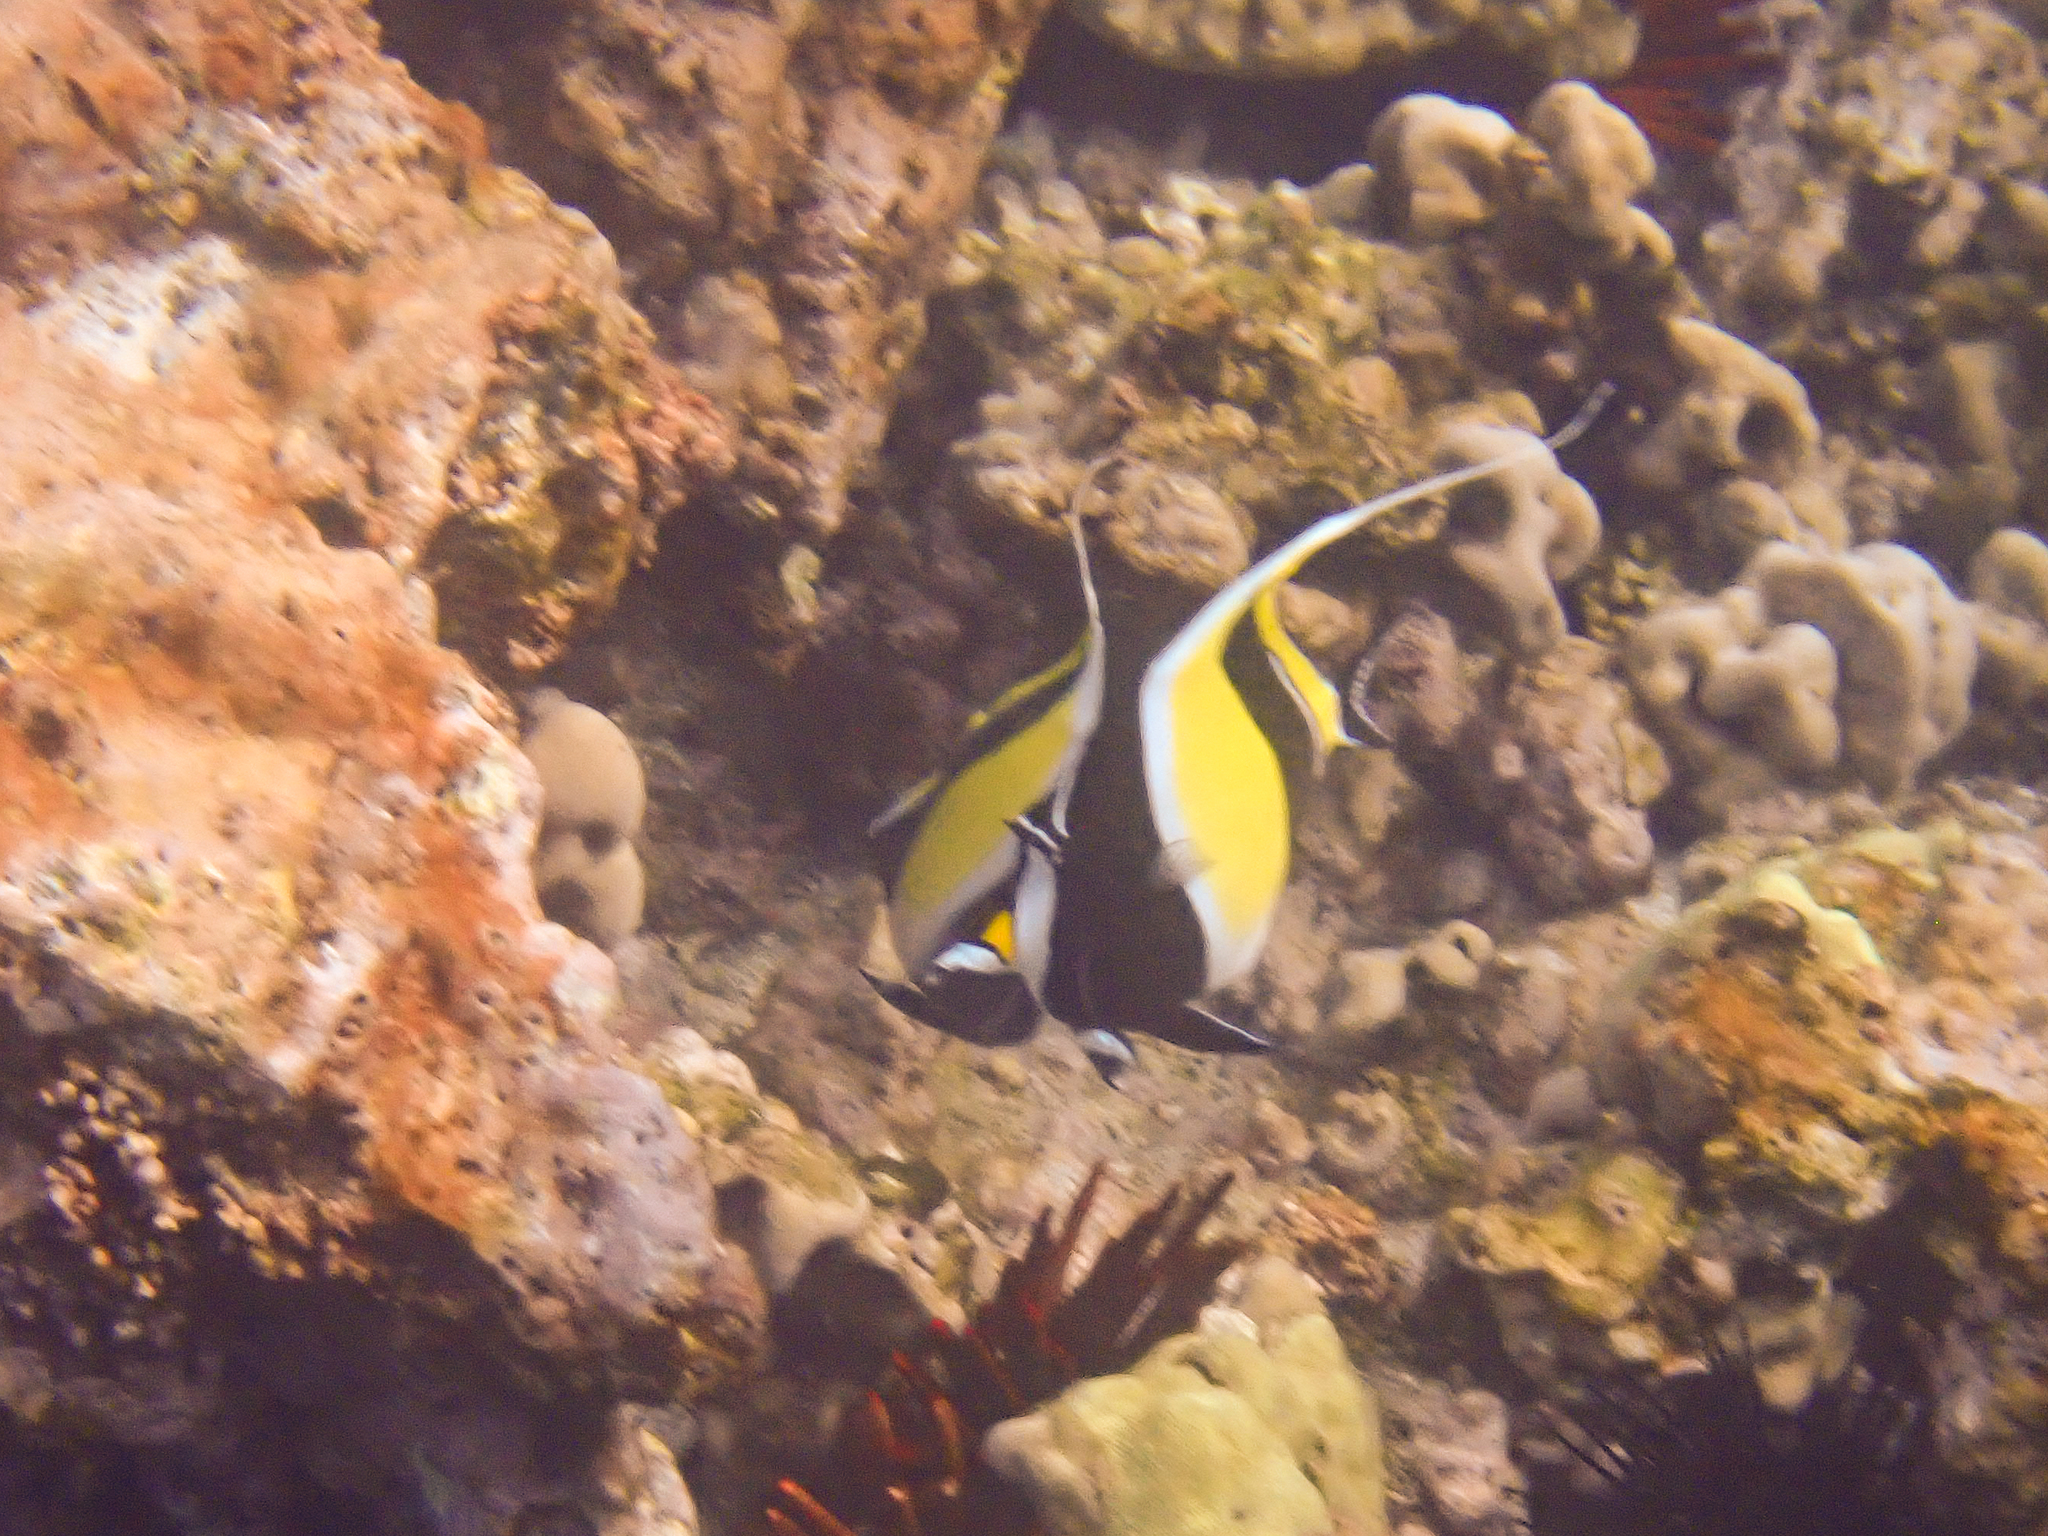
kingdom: Animalia
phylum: Chordata
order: Perciformes
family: Zanclidae
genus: Zanclus
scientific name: Zanclus cornutus
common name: Moorish idol
